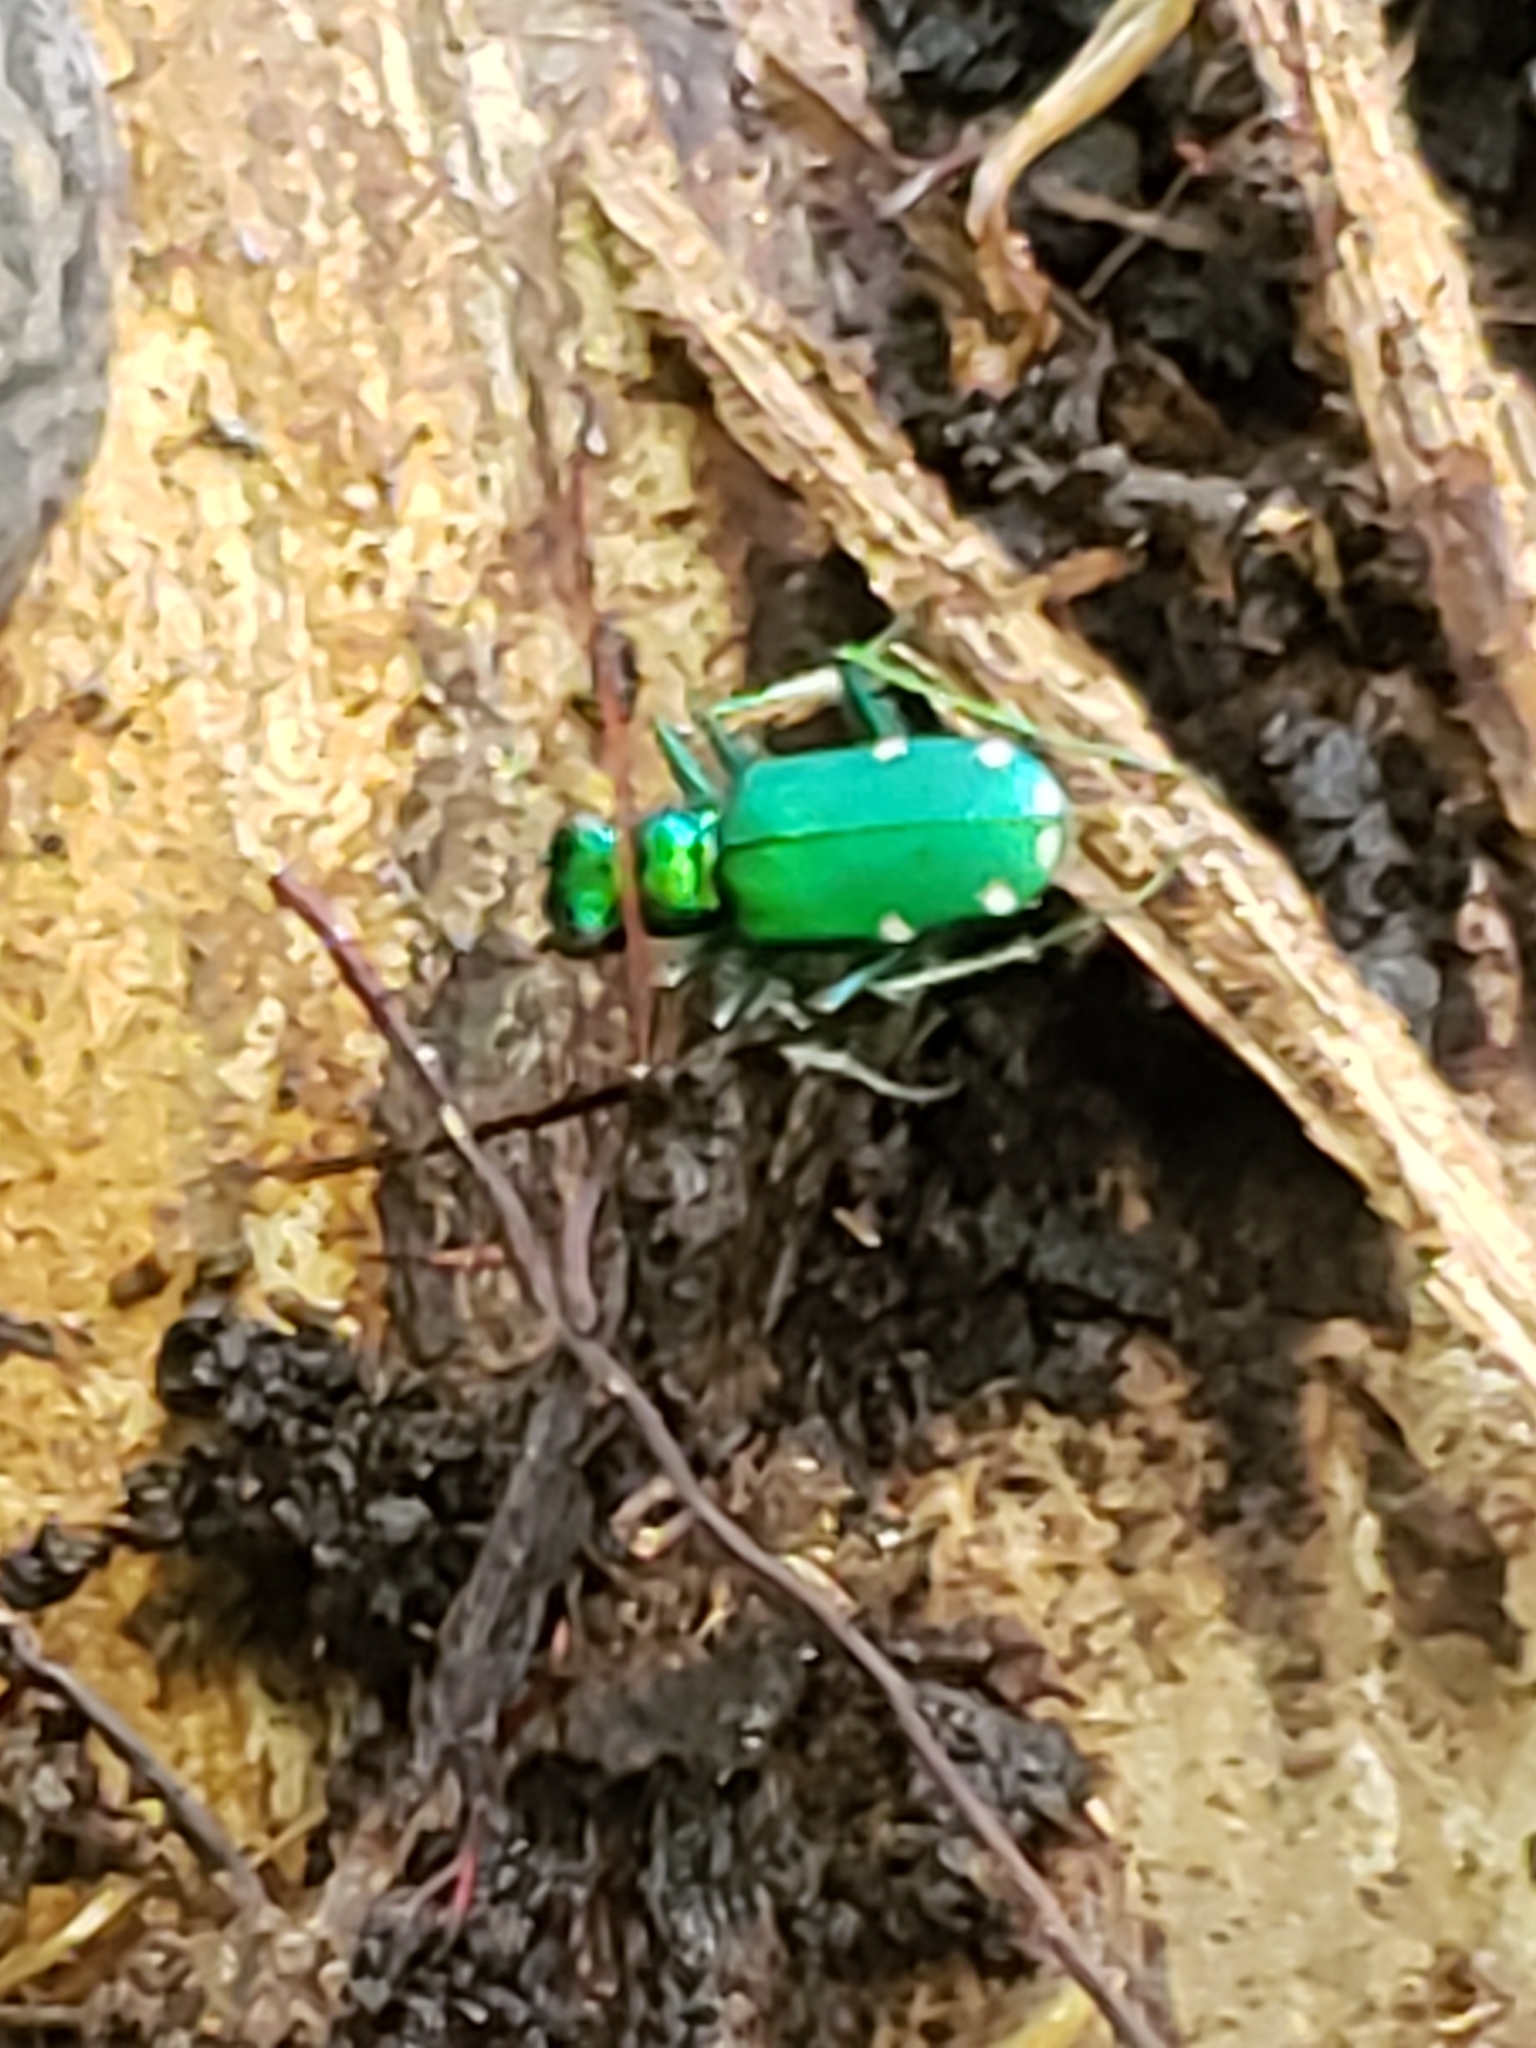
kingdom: Animalia
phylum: Arthropoda
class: Insecta
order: Coleoptera
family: Carabidae
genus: Cicindela
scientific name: Cicindela sexguttata
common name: Six-spotted tiger beetle
